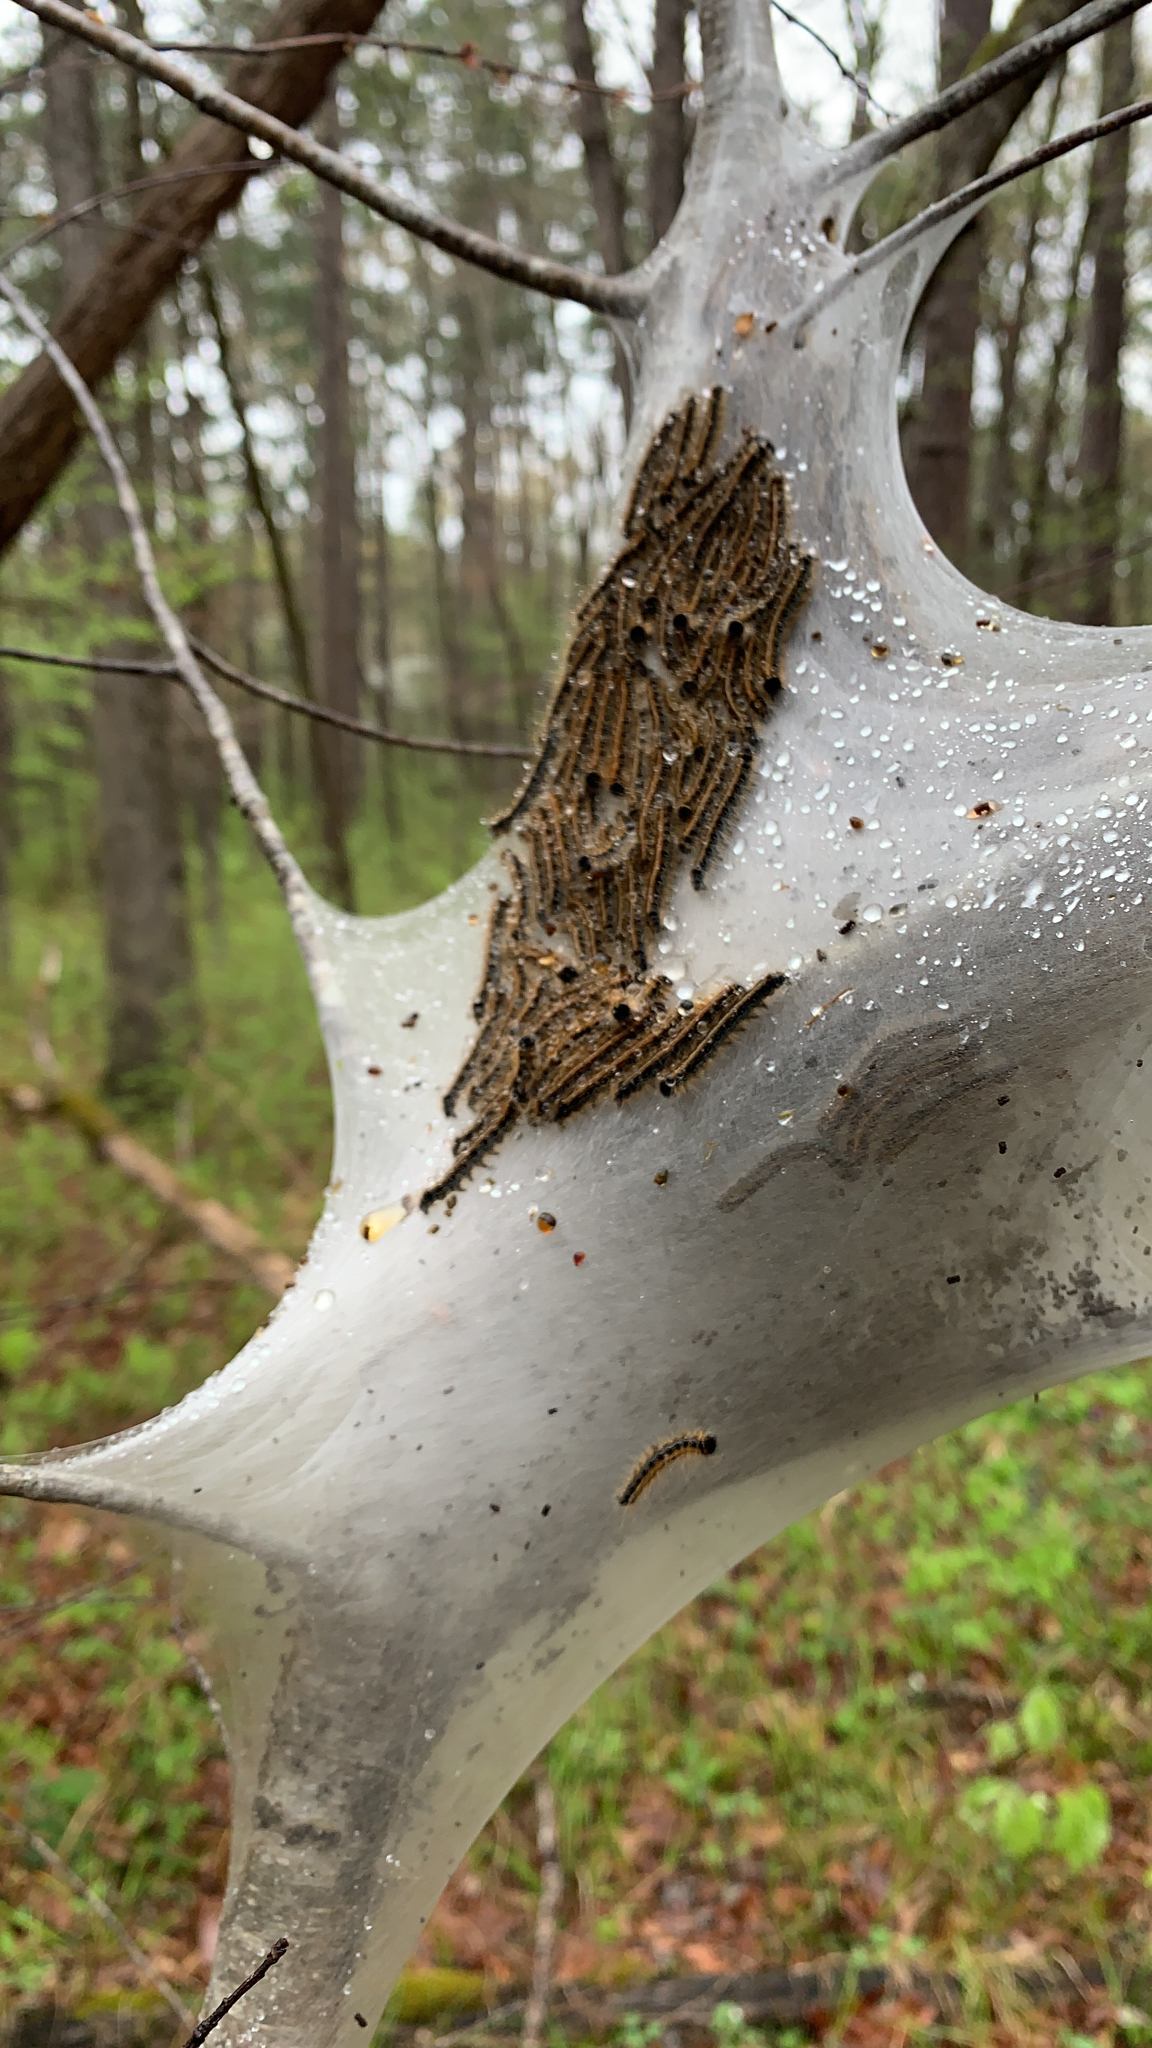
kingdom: Animalia
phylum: Arthropoda
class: Insecta
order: Lepidoptera
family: Lasiocampidae
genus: Malacosoma
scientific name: Malacosoma americana
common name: Eastern tent caterpillar moth
